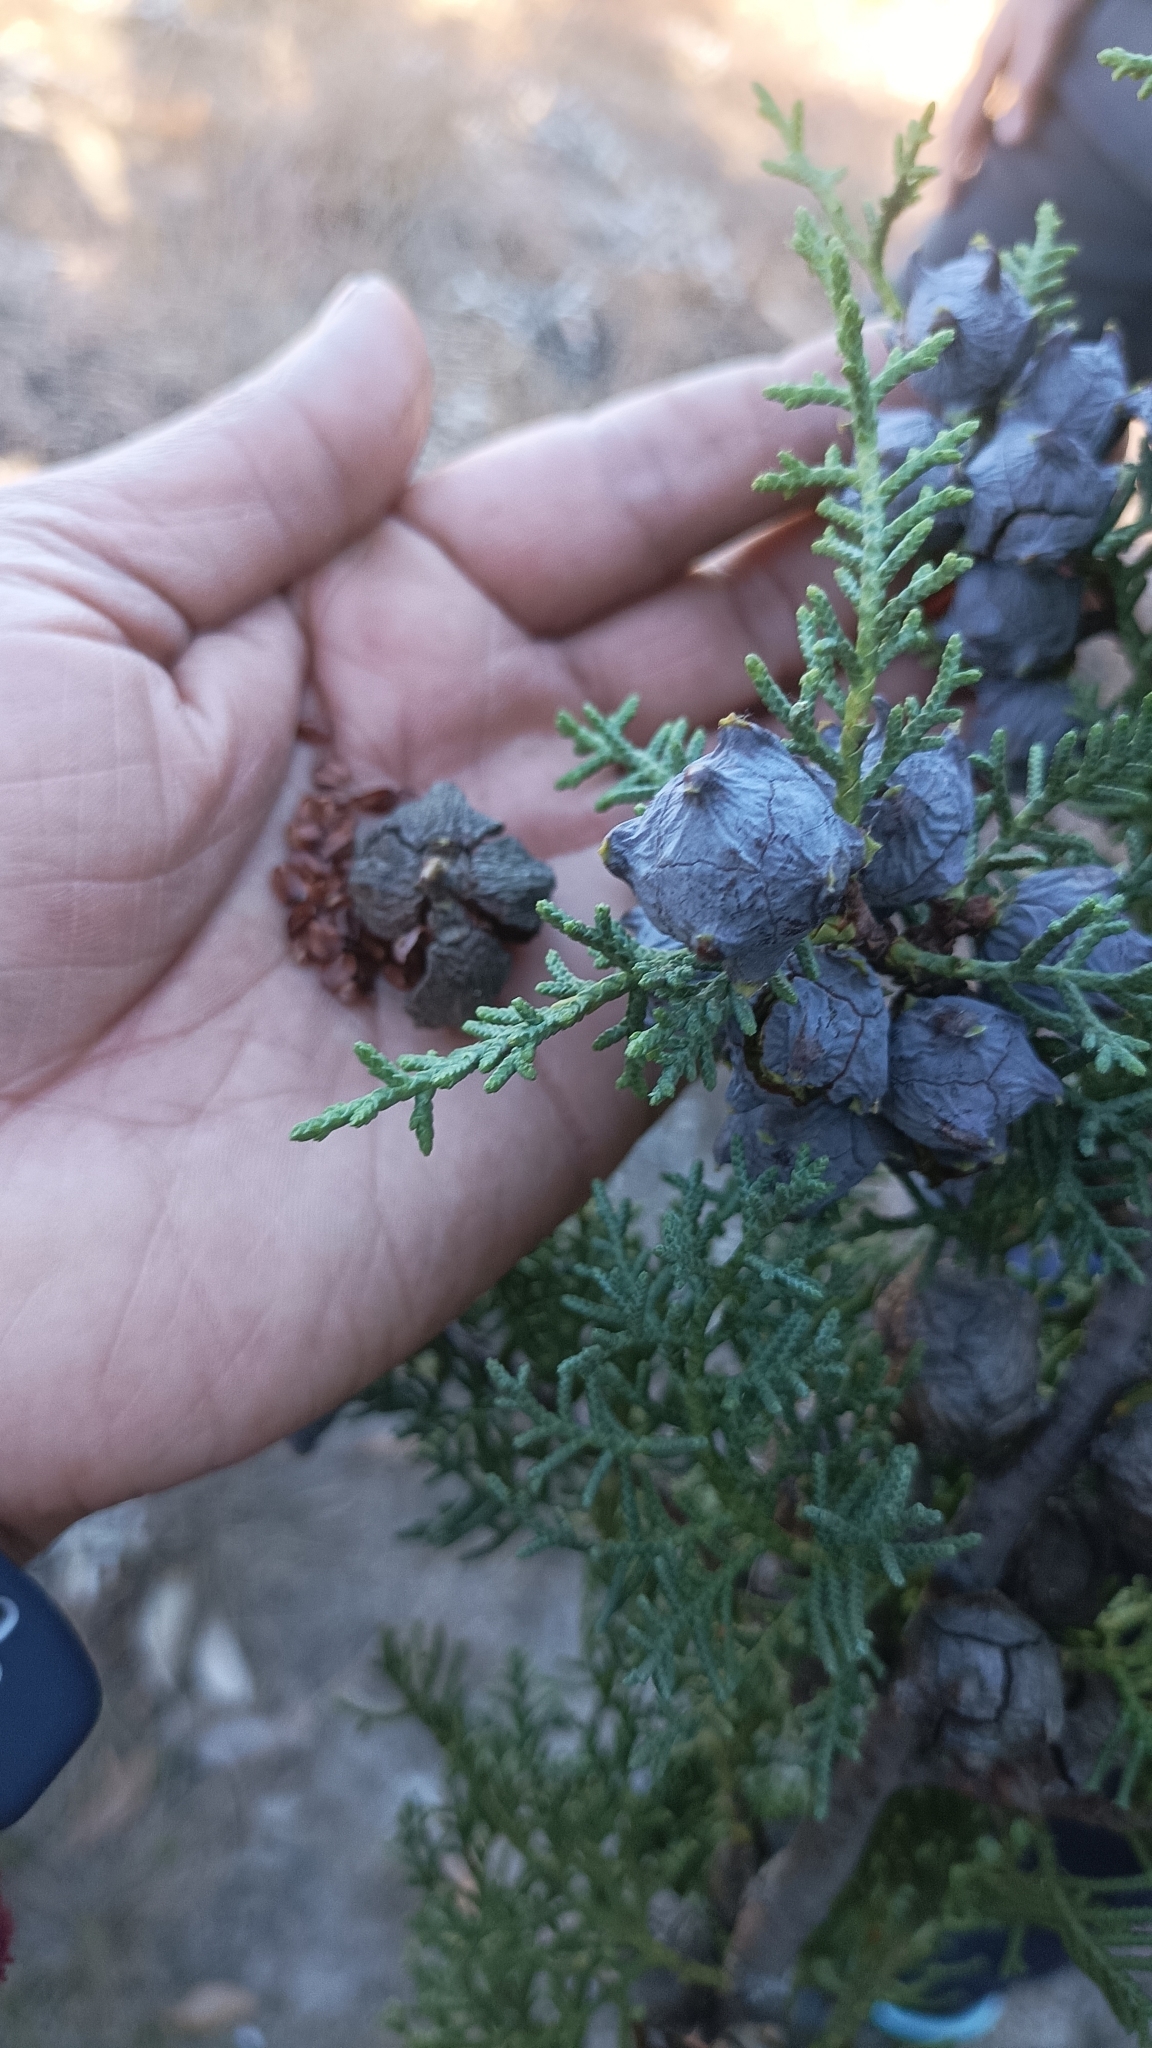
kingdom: Plantae
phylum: Tracheophyta
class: Pinopsida
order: Pinales
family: Cupressaceae
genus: Cupressus
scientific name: Cupressus torulosa
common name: Himalayan cypress
